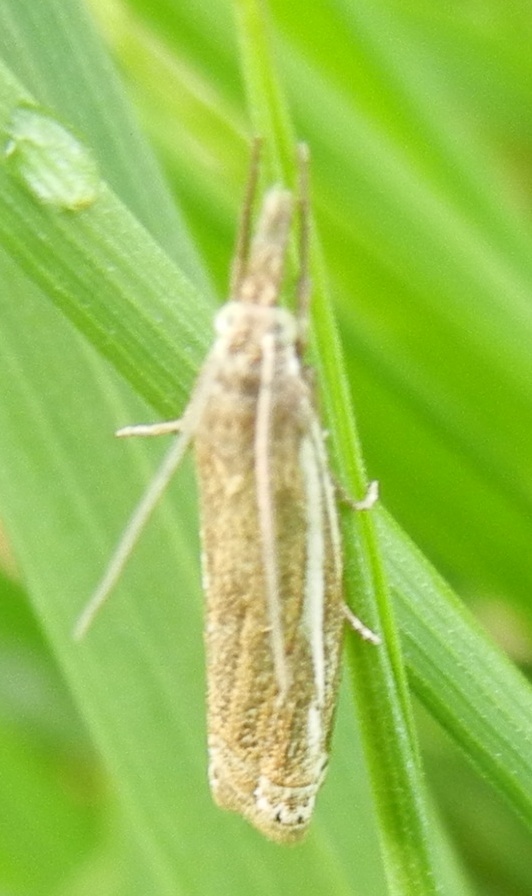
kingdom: Animalia
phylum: Arthropoda
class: Insecta
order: Lepidoptera
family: Crambidae
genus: Crambus
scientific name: Crambus nemorella
